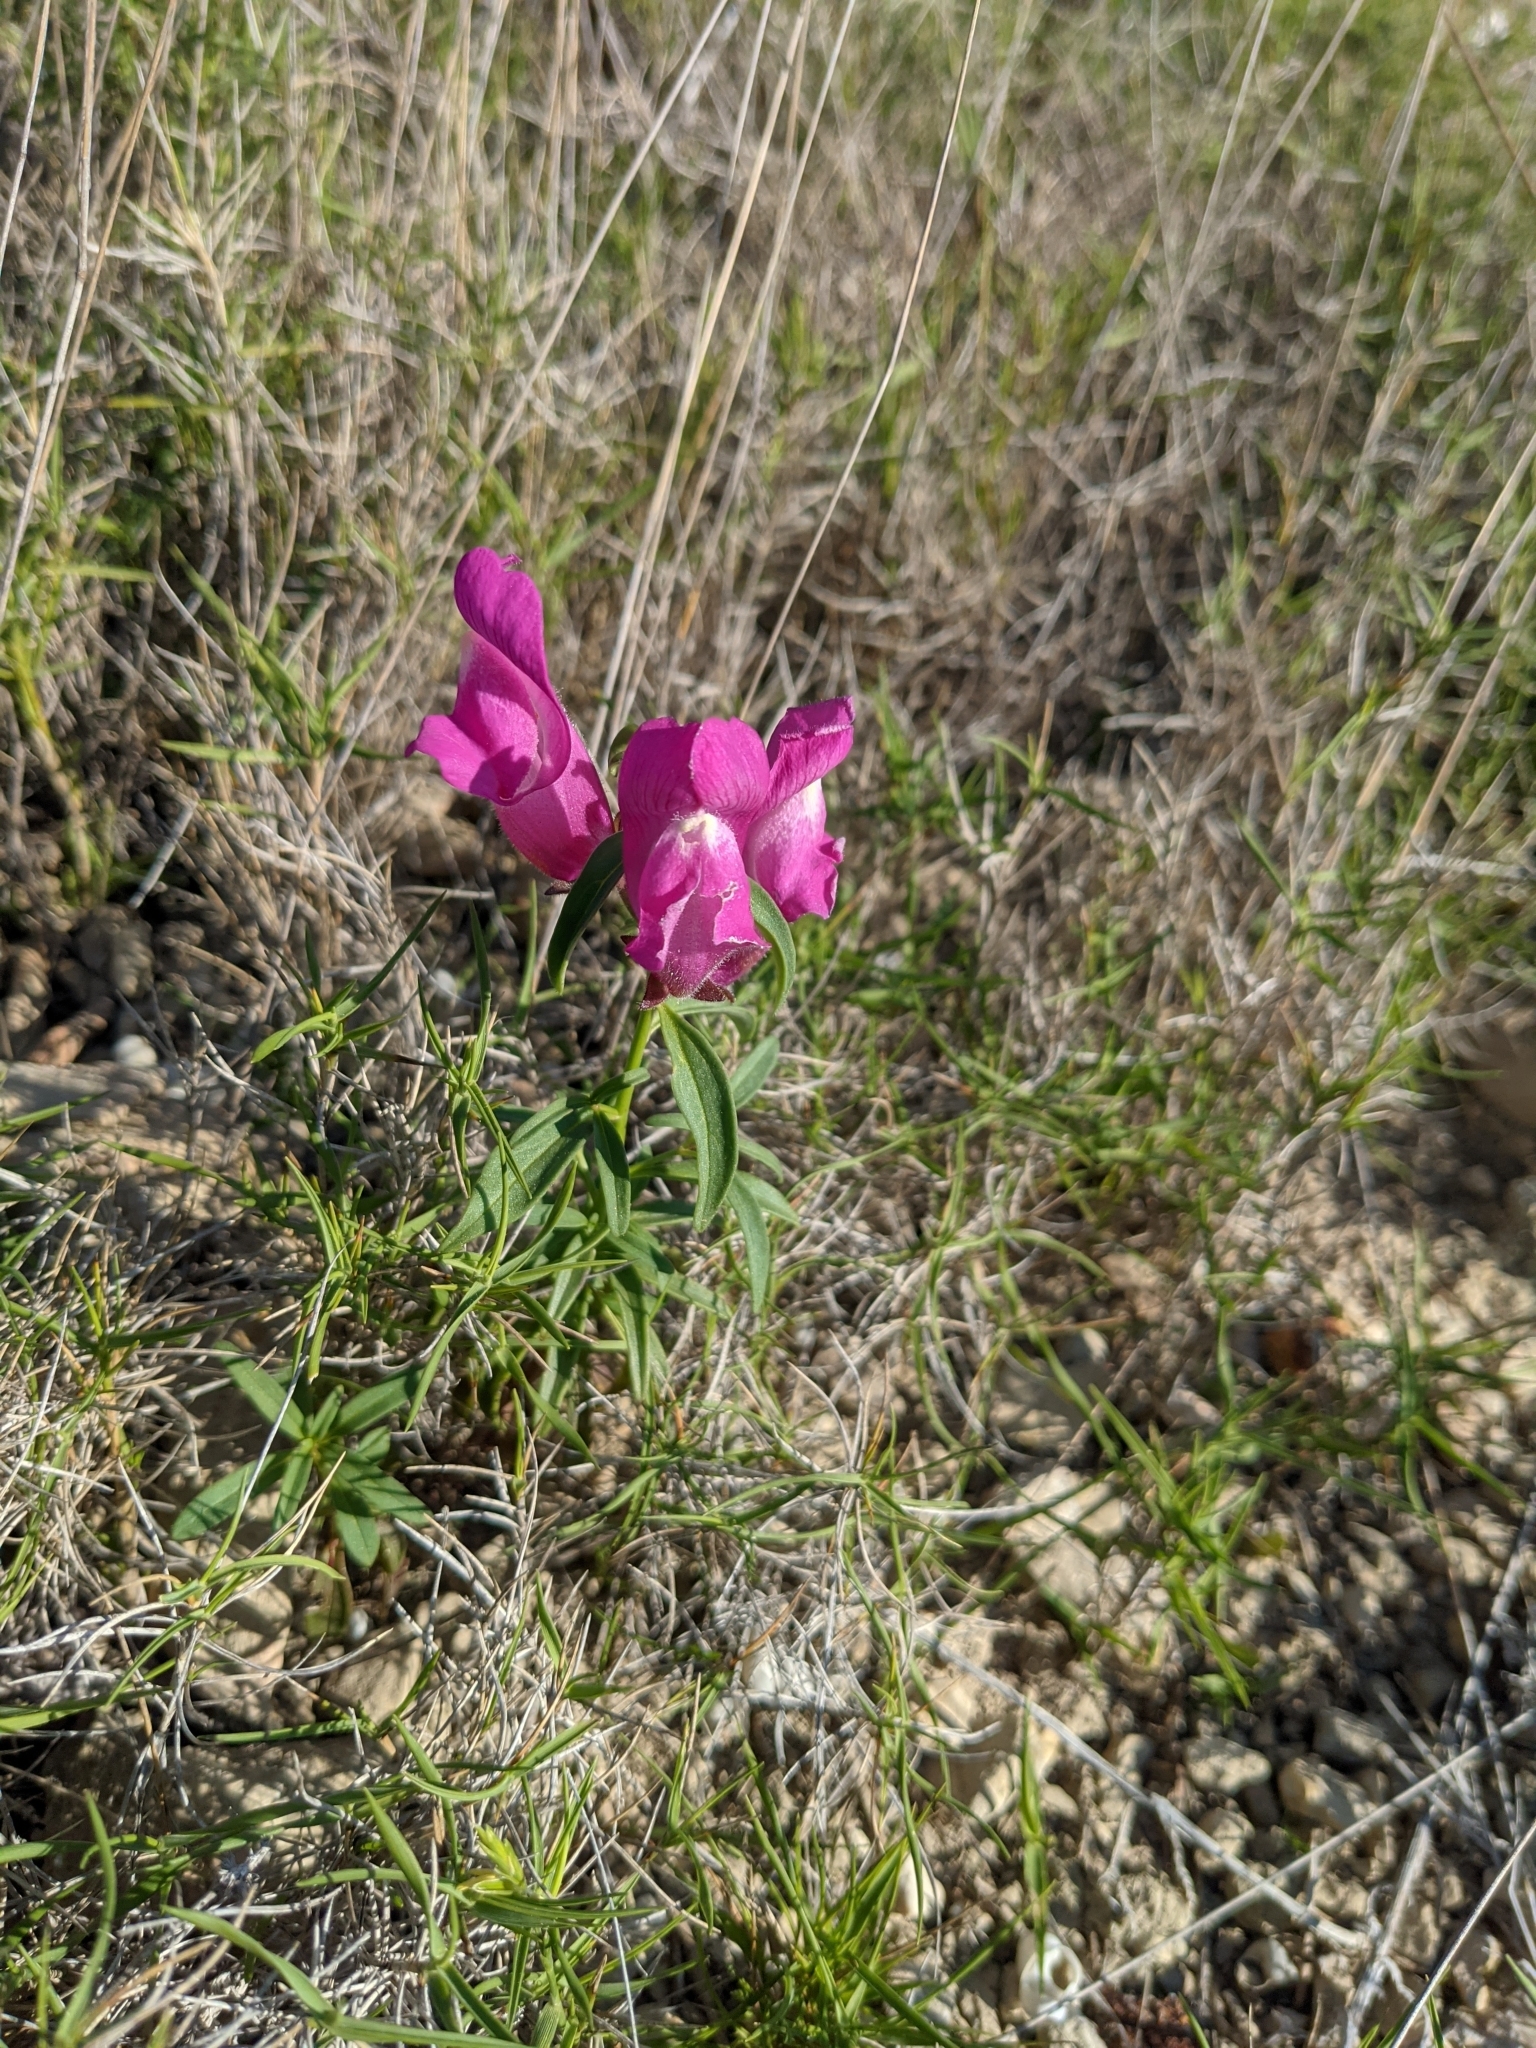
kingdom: Plantae
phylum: Tracheophyta
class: Magnoliopsida
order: Lamiales
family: Plantaginaceae
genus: Antirrhinum
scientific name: Antirrhinum majus
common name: Snapdragon
